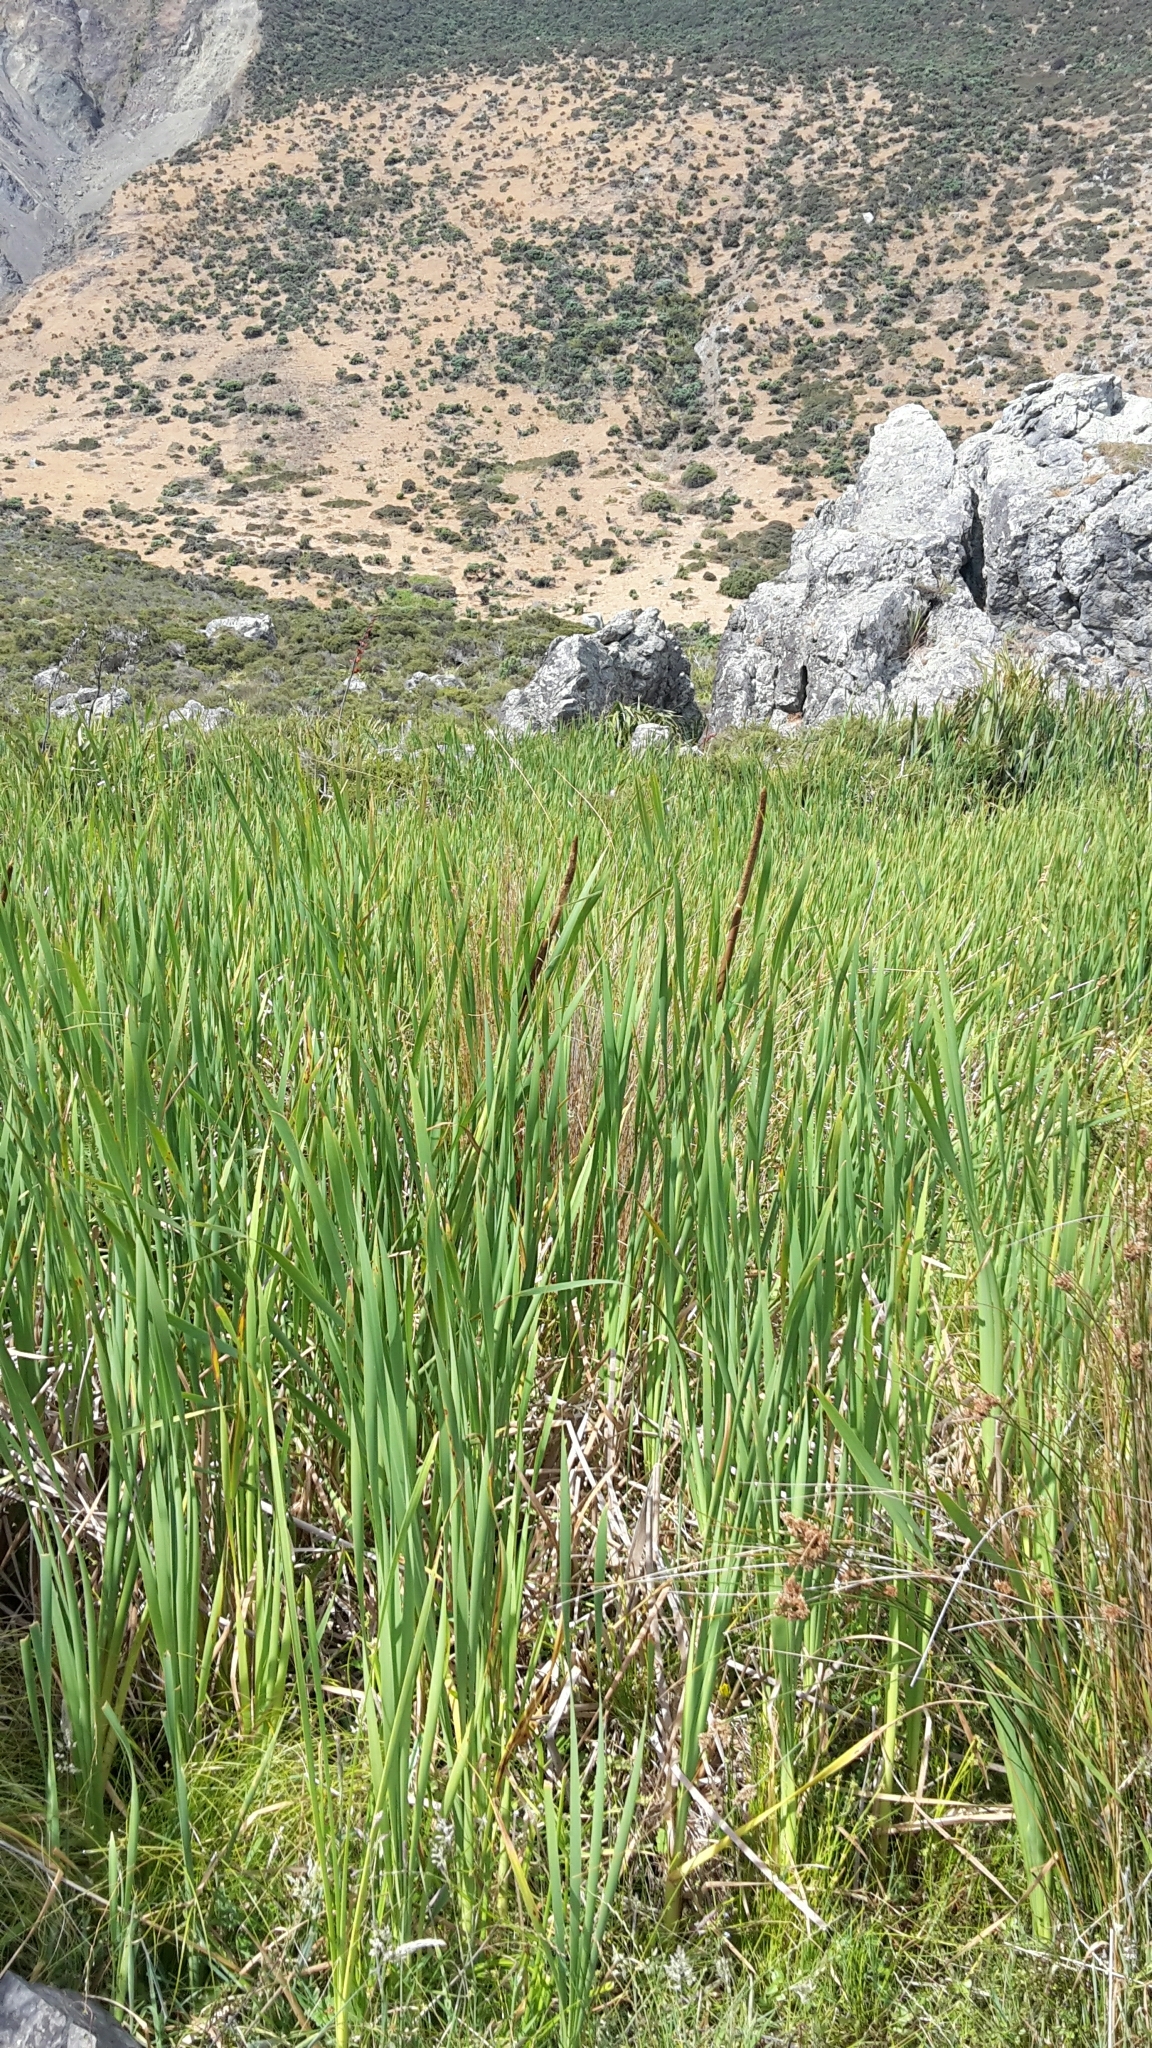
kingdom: Plantae
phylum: Tracheophyta
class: Liliopsida
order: Poales
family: Typhaceae
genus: Typha
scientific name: Typha orientalis
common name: Bullrush
